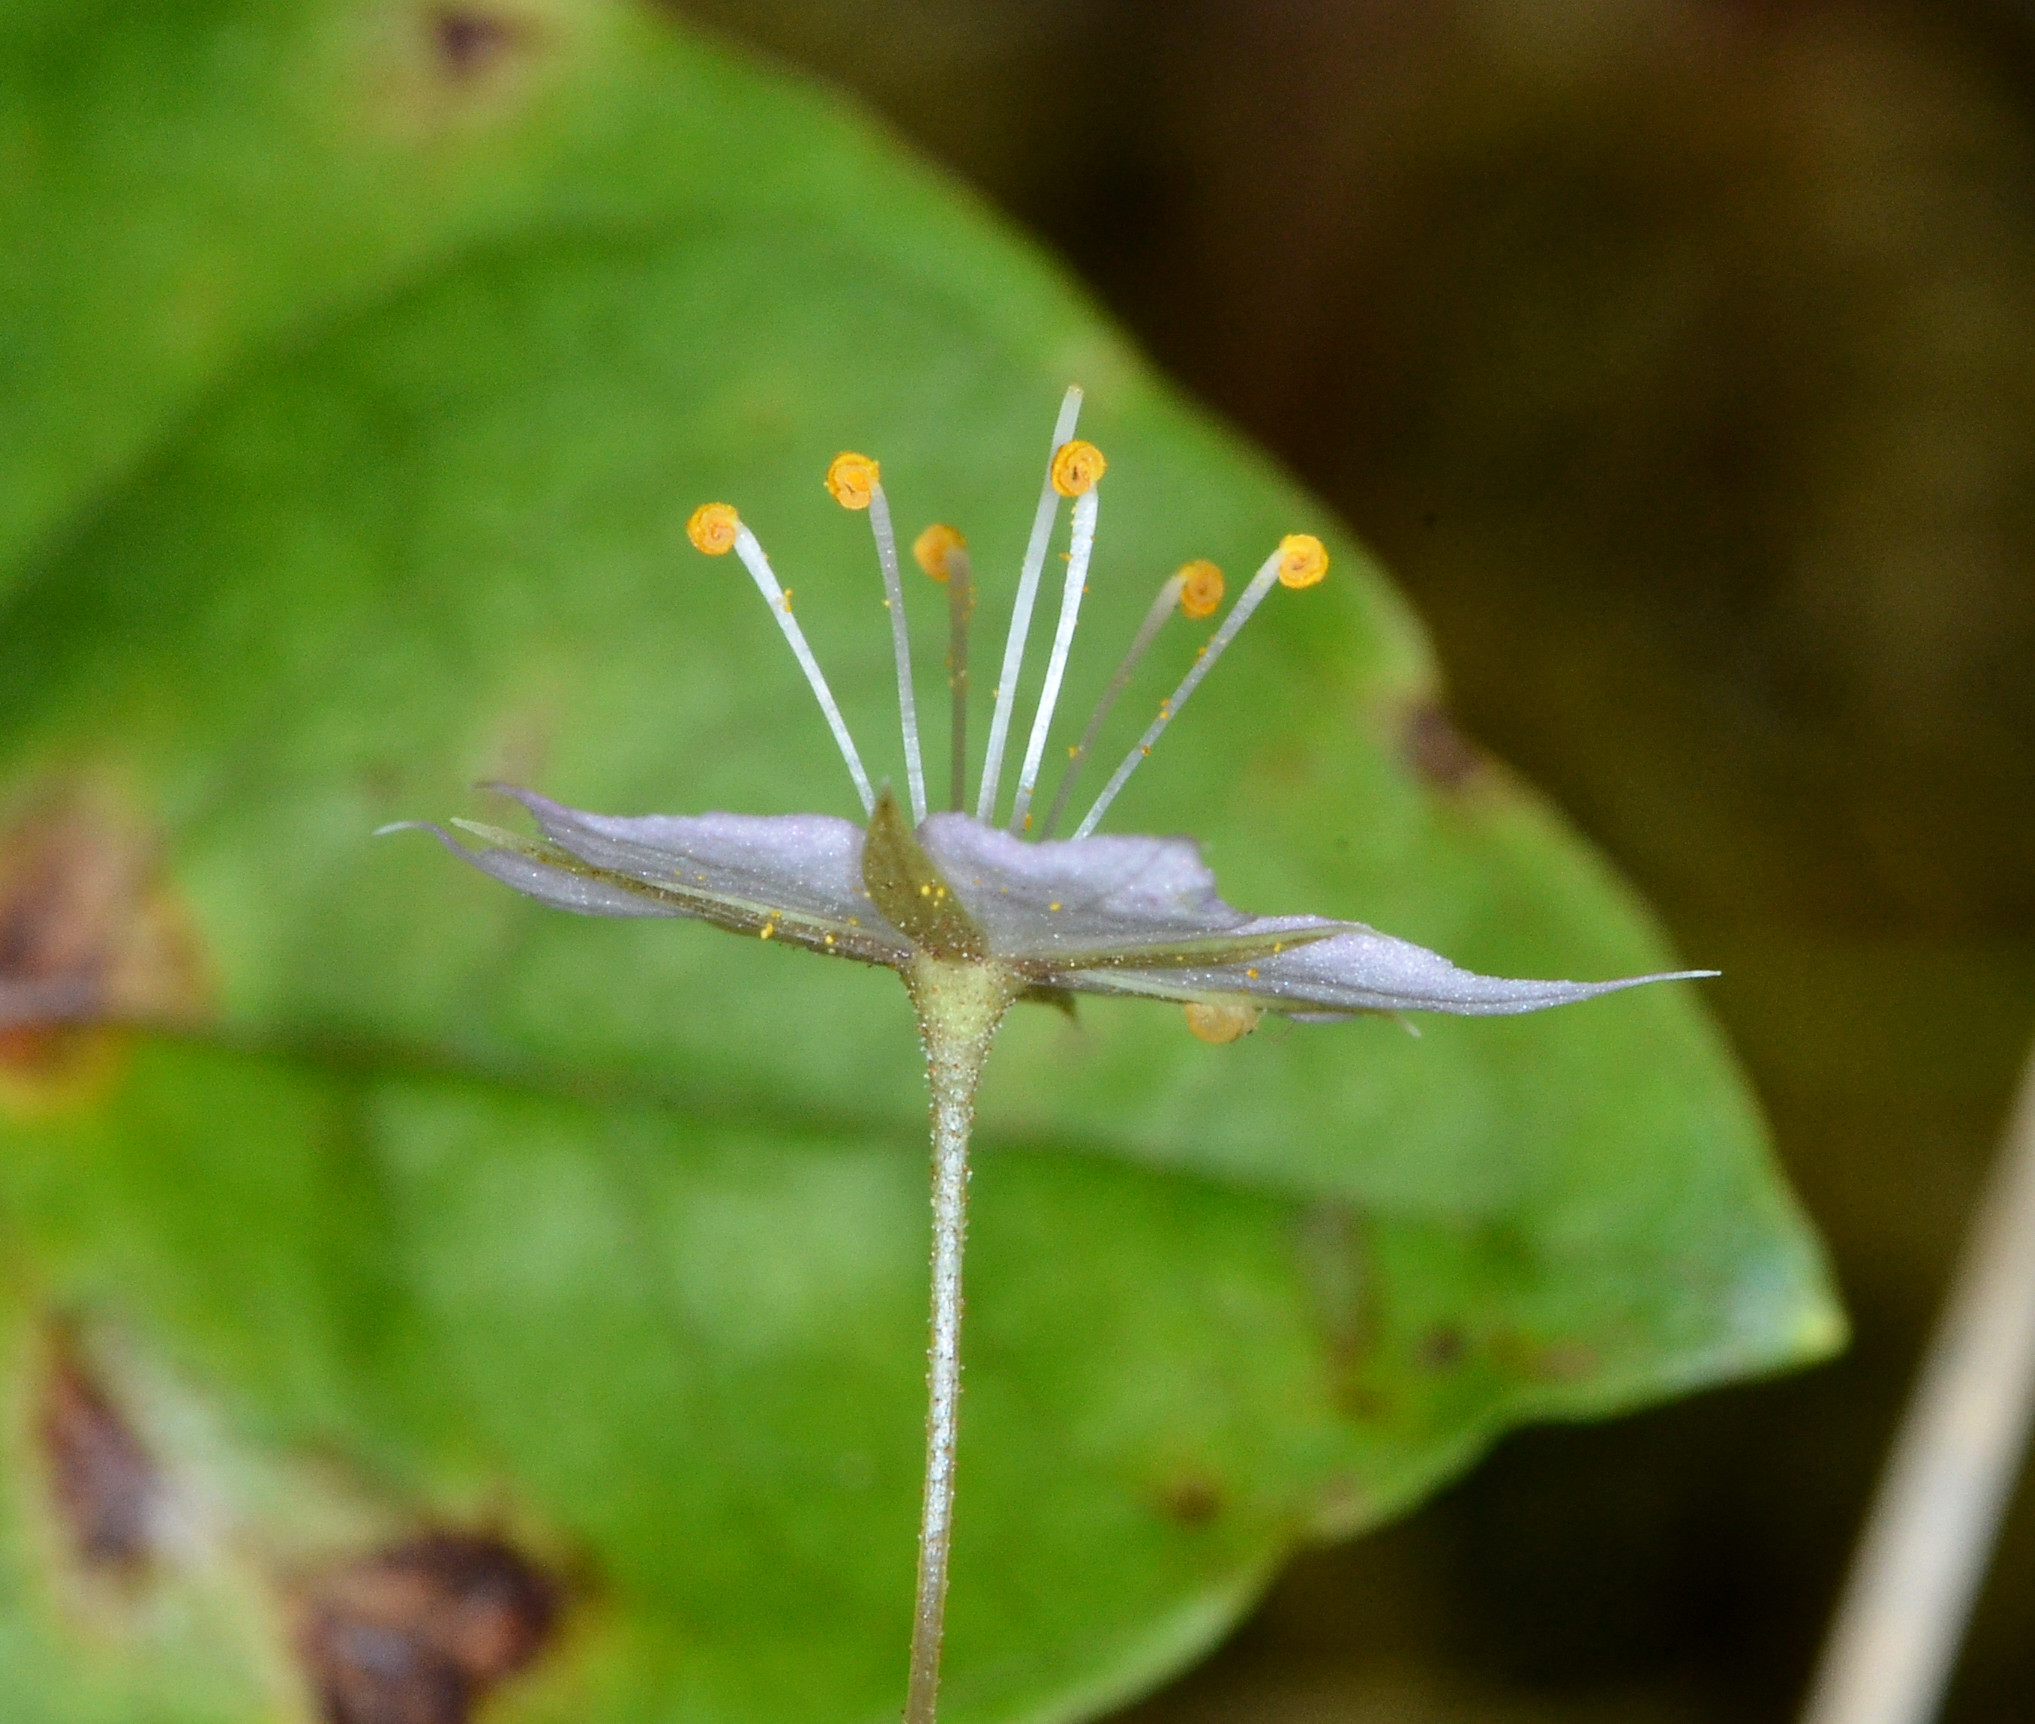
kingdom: Plantae
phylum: Tracheophyta
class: Magnoliopsida
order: Ericales
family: Primulaceae
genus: Lysimachia
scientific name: Lysimachia latifolia
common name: Pacific starflower
